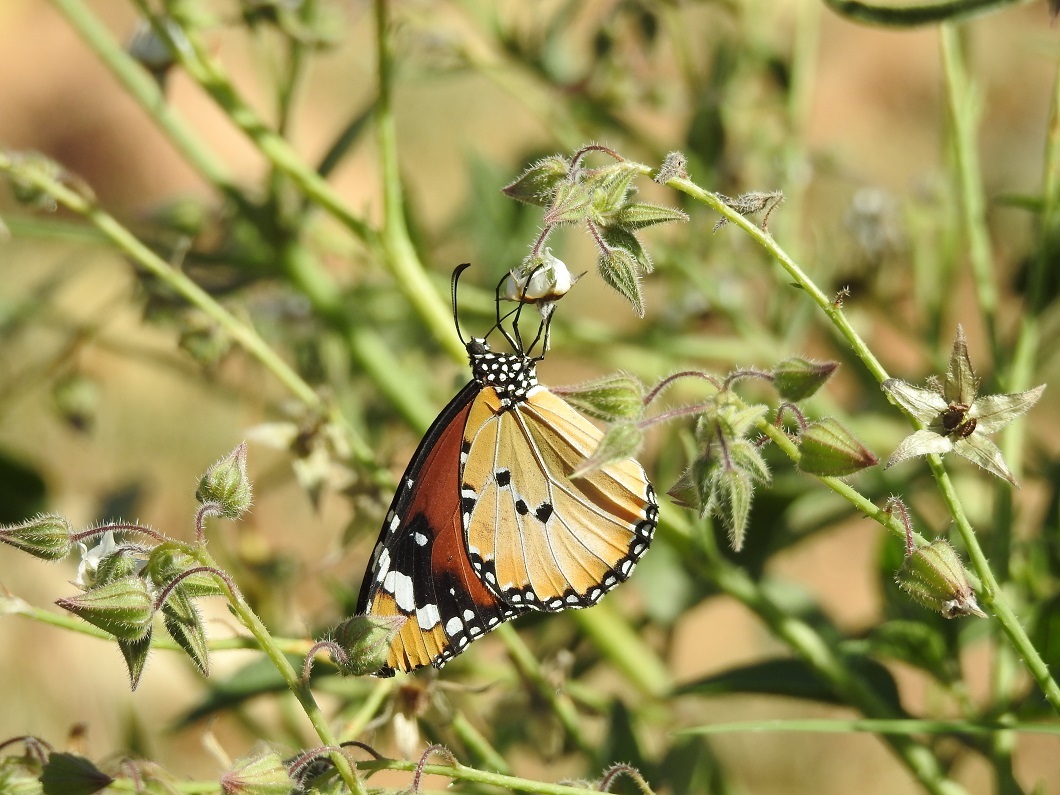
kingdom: Animalia
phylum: Arthropoda
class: Insecta
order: Lepidoptera
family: Nymphalidae
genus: Danaus
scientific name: Danaus chrysippus
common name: Plain tiger
